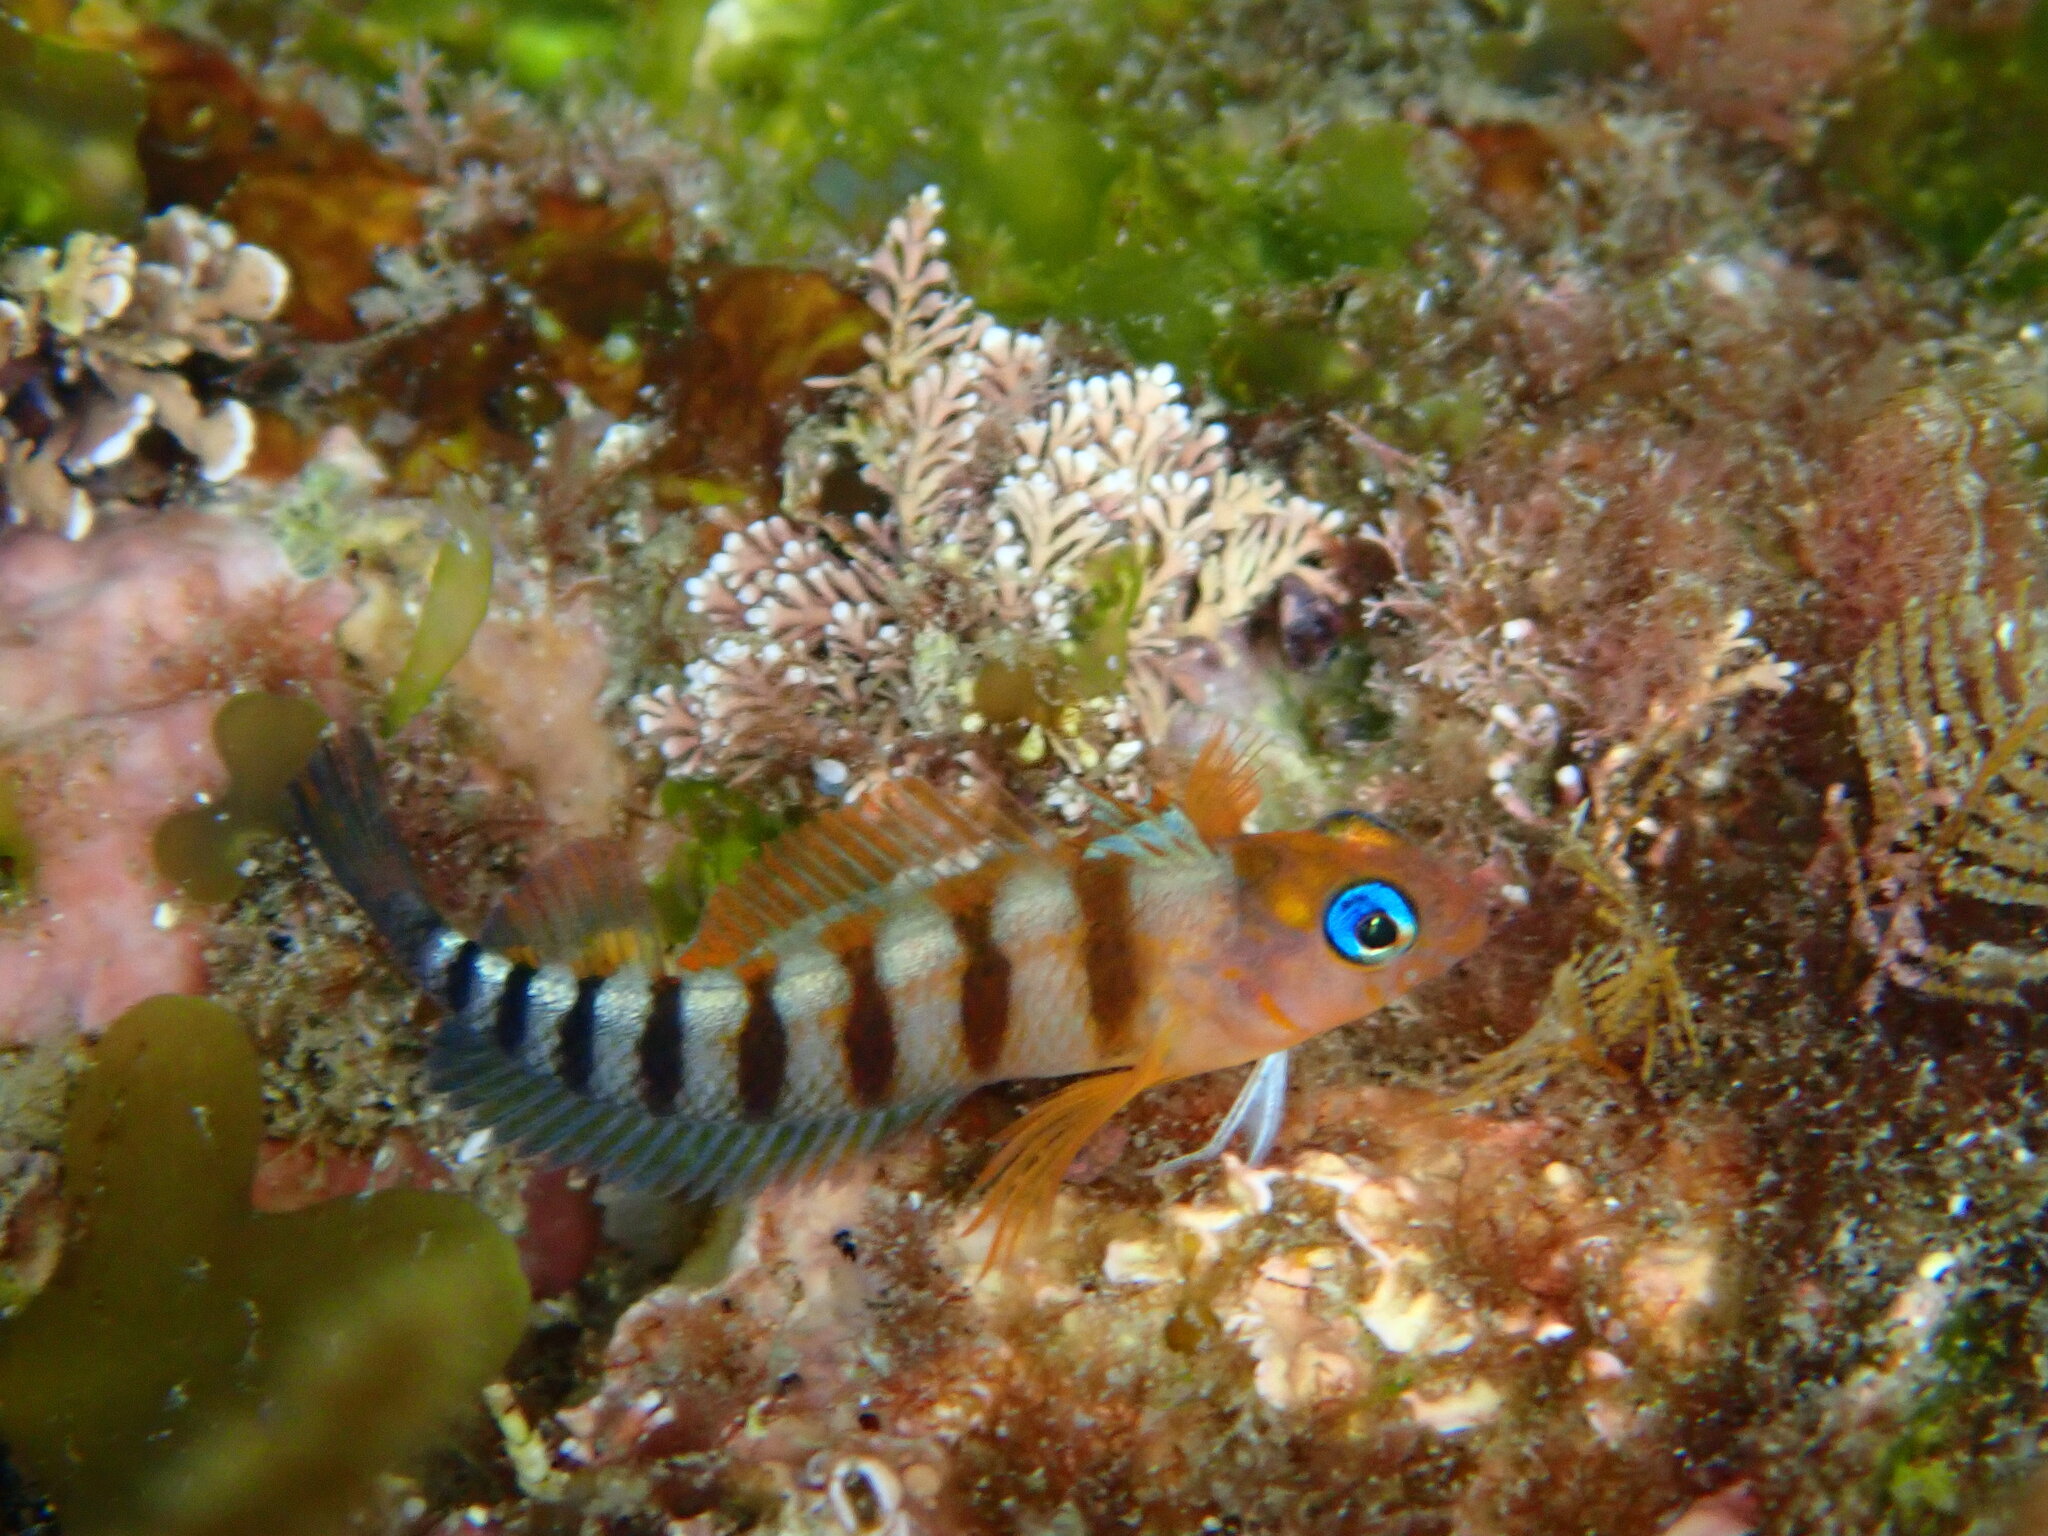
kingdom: Animalia
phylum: Chordata
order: Perciformes
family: Tripterygiidae
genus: Notoclinops
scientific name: Notoclinops segmentatus
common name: Blue-eyed triplefin
